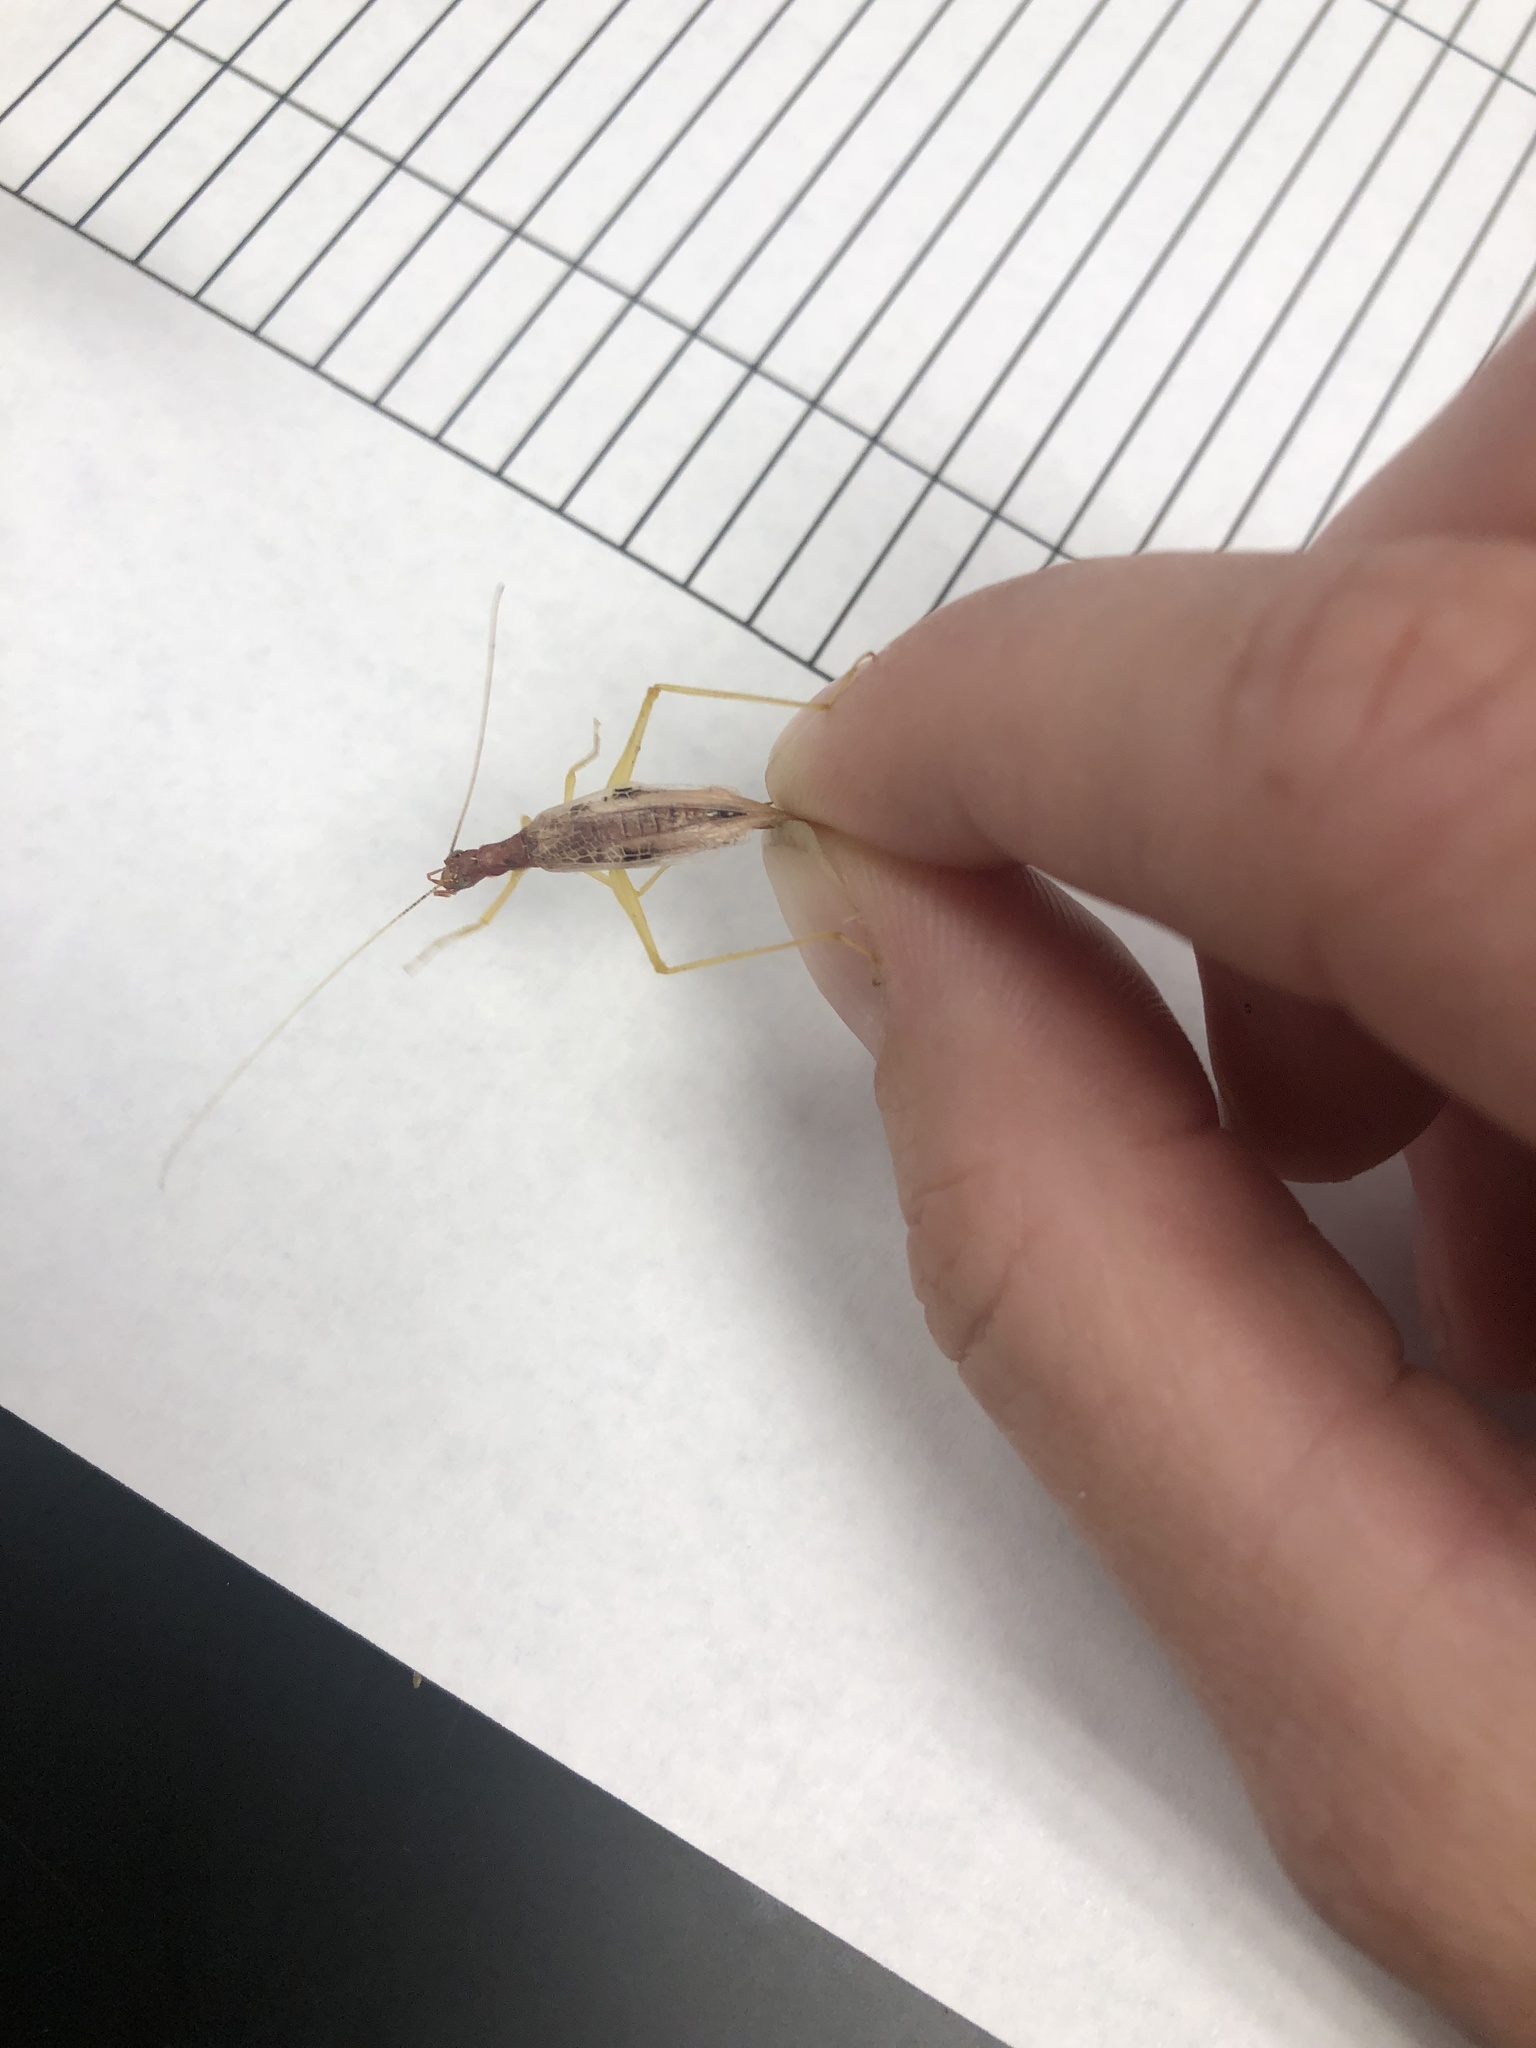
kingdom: Animalia
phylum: Arthropoda
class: Insecta
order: Orthoptera
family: Gryllidae
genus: Neoxabea
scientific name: Neoxabea bipunctata
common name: Two-spotted tree cricket
